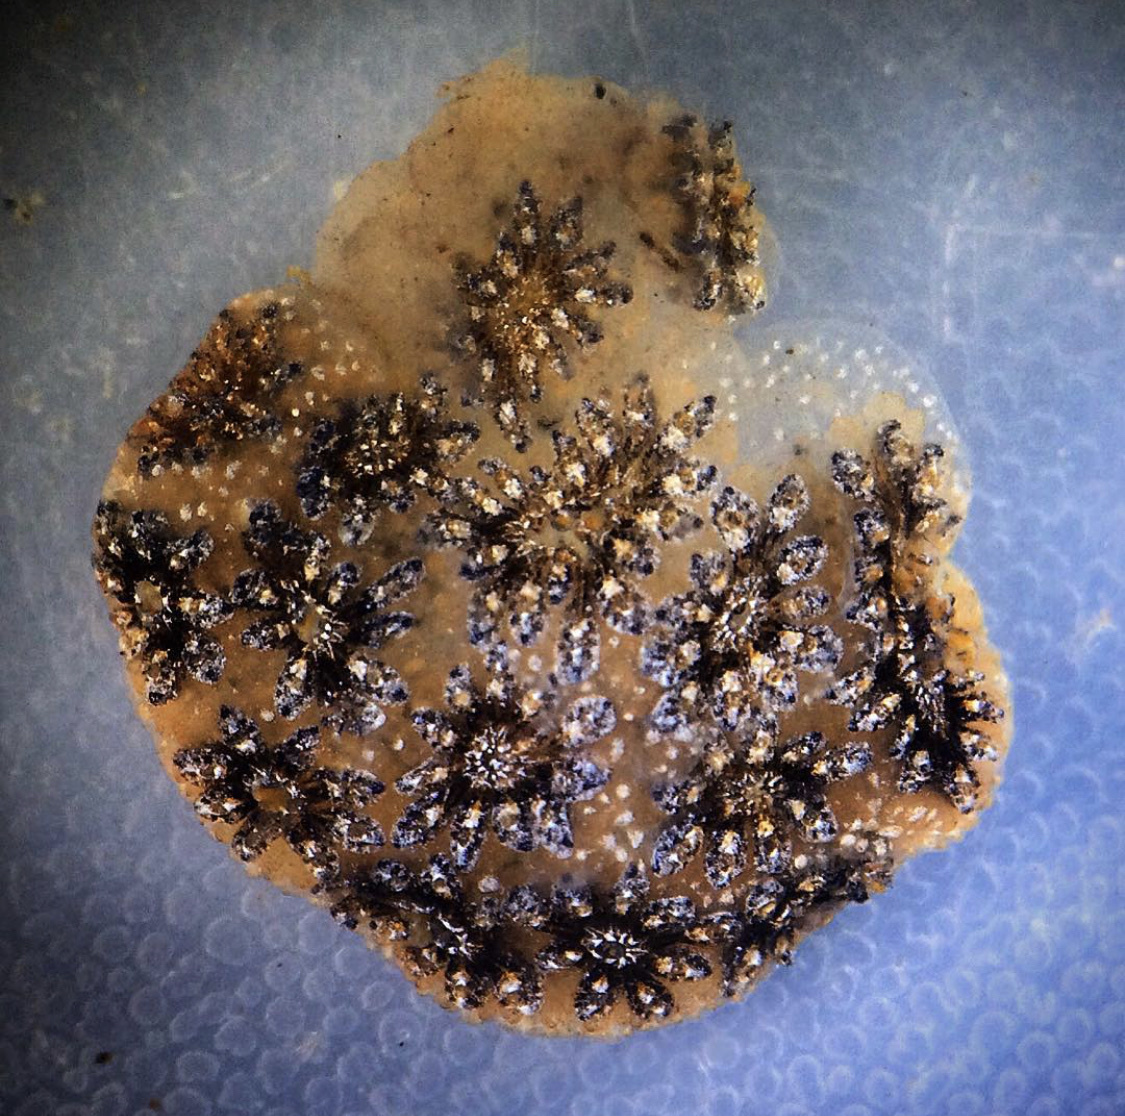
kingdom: Animalia
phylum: Chordata
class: Ascidiacea
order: Stolidobranchia
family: Styelidae
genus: Botryllus
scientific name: Botryllus schlosseri
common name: Golden star tunicate
